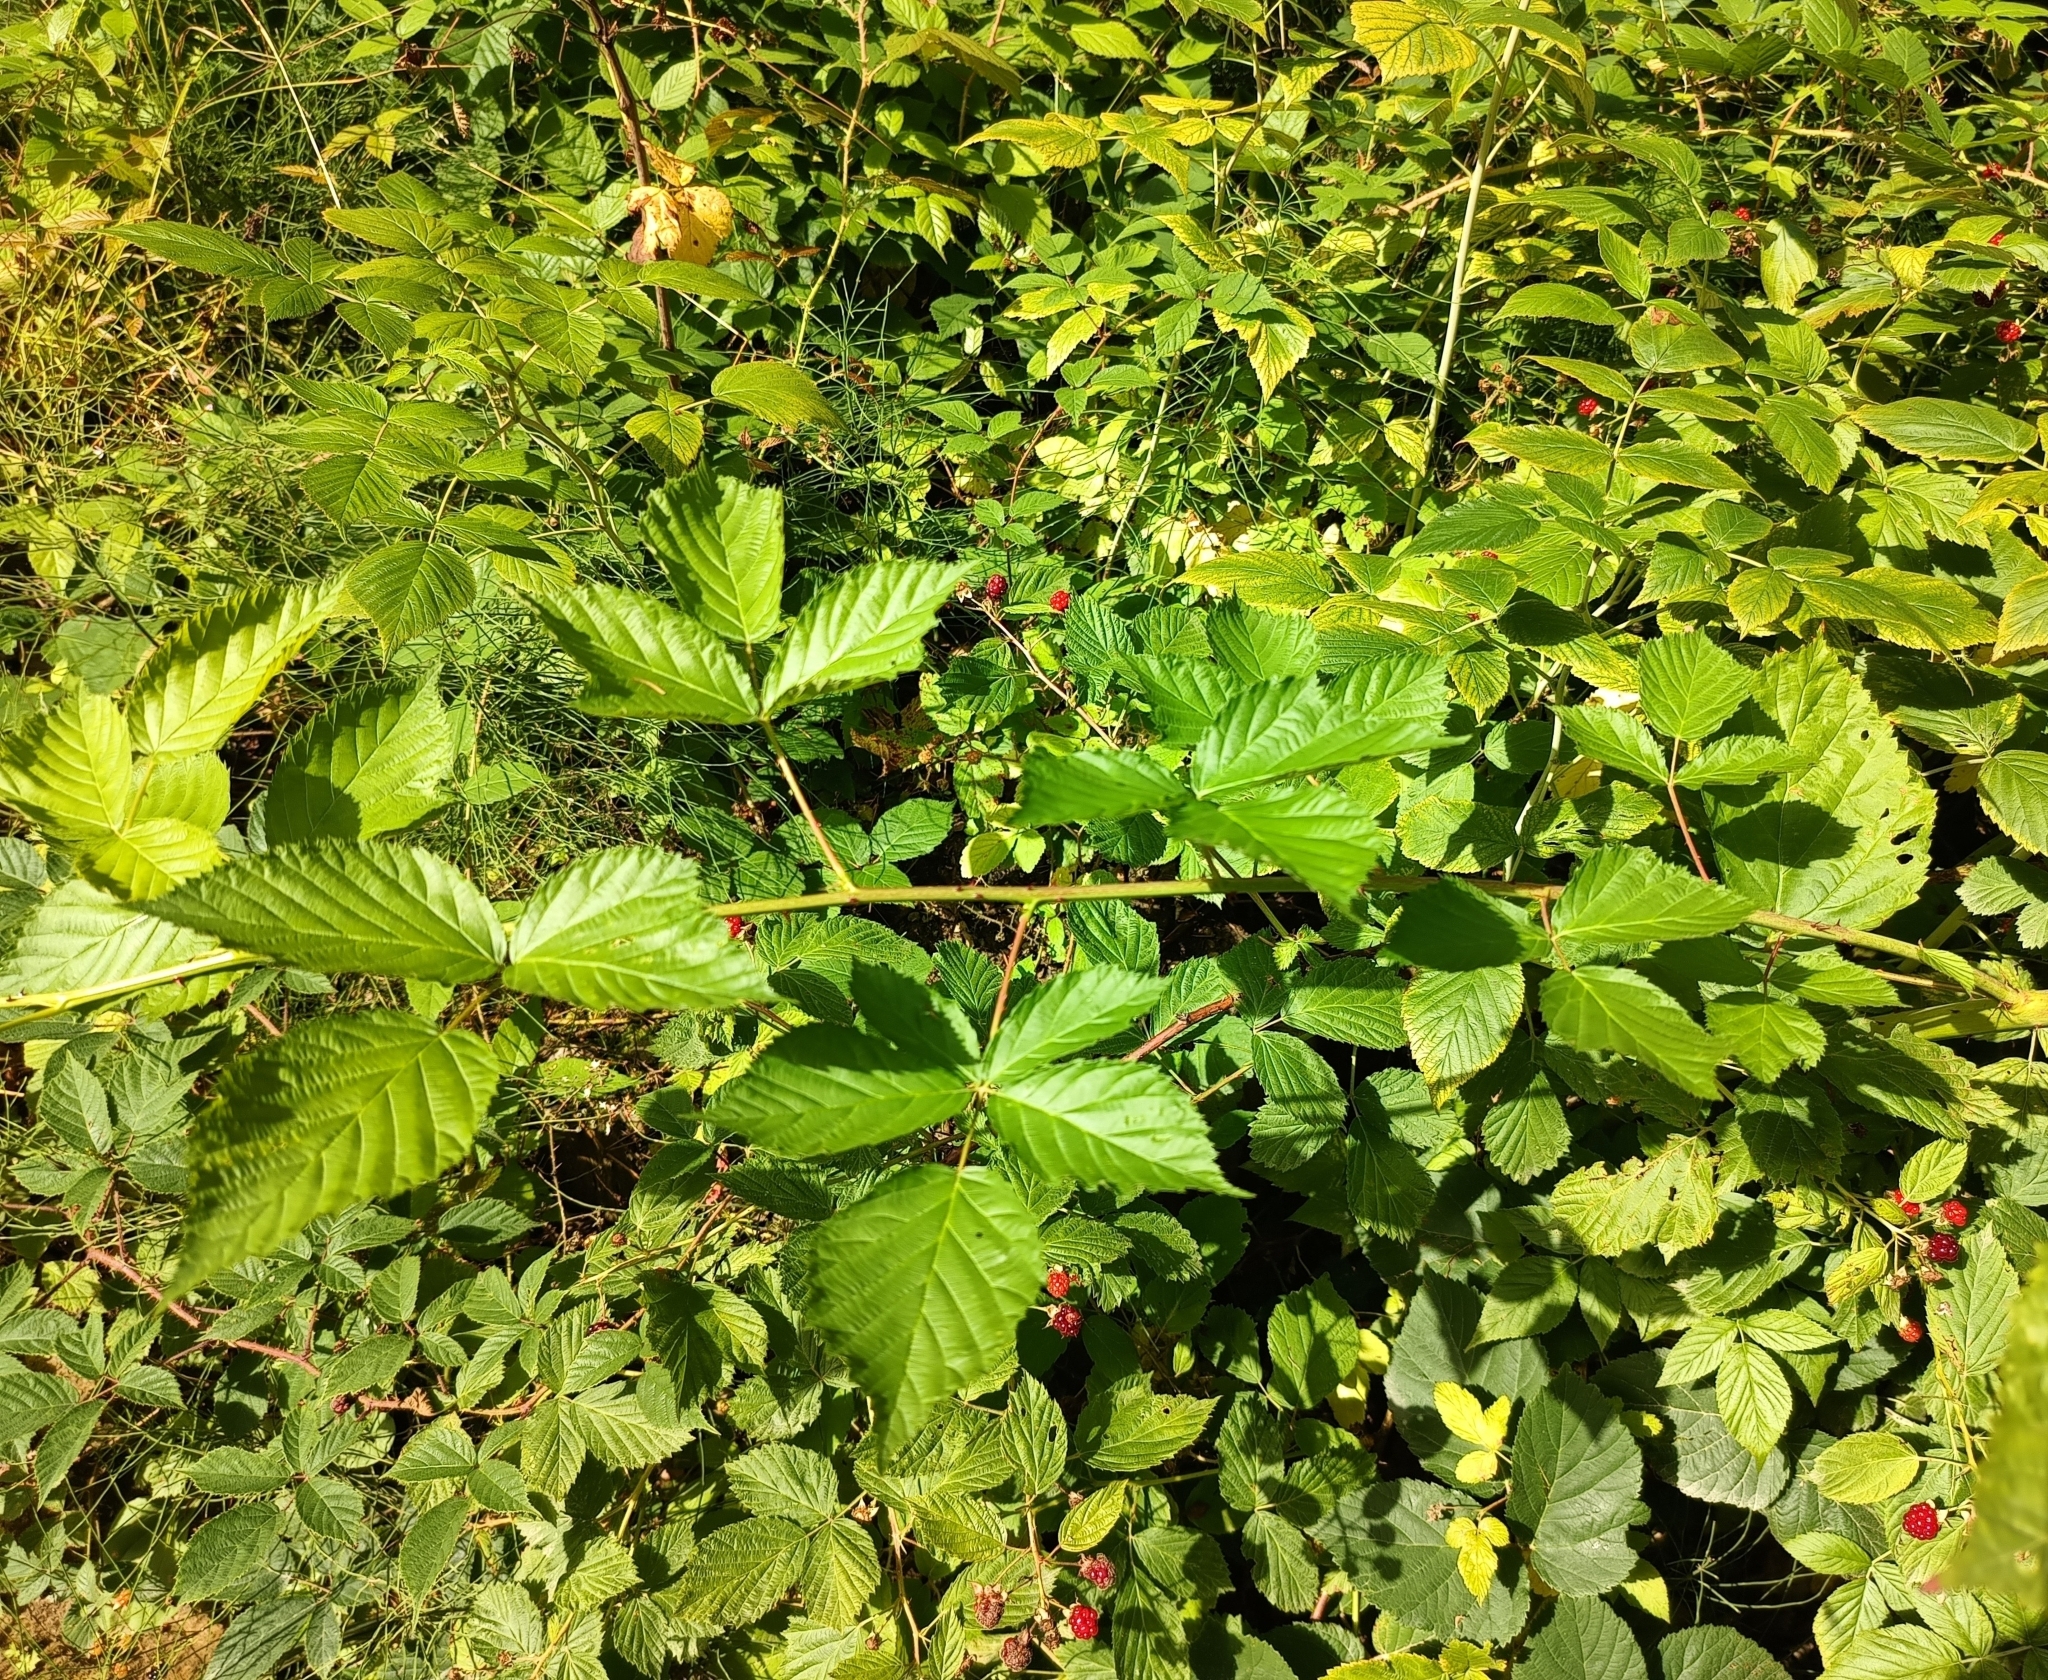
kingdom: Plantae
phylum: Tracheophyta
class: Magnoliopsida
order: Rosales
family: Rosaceae
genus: Rubus
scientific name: Rubus polonicus
